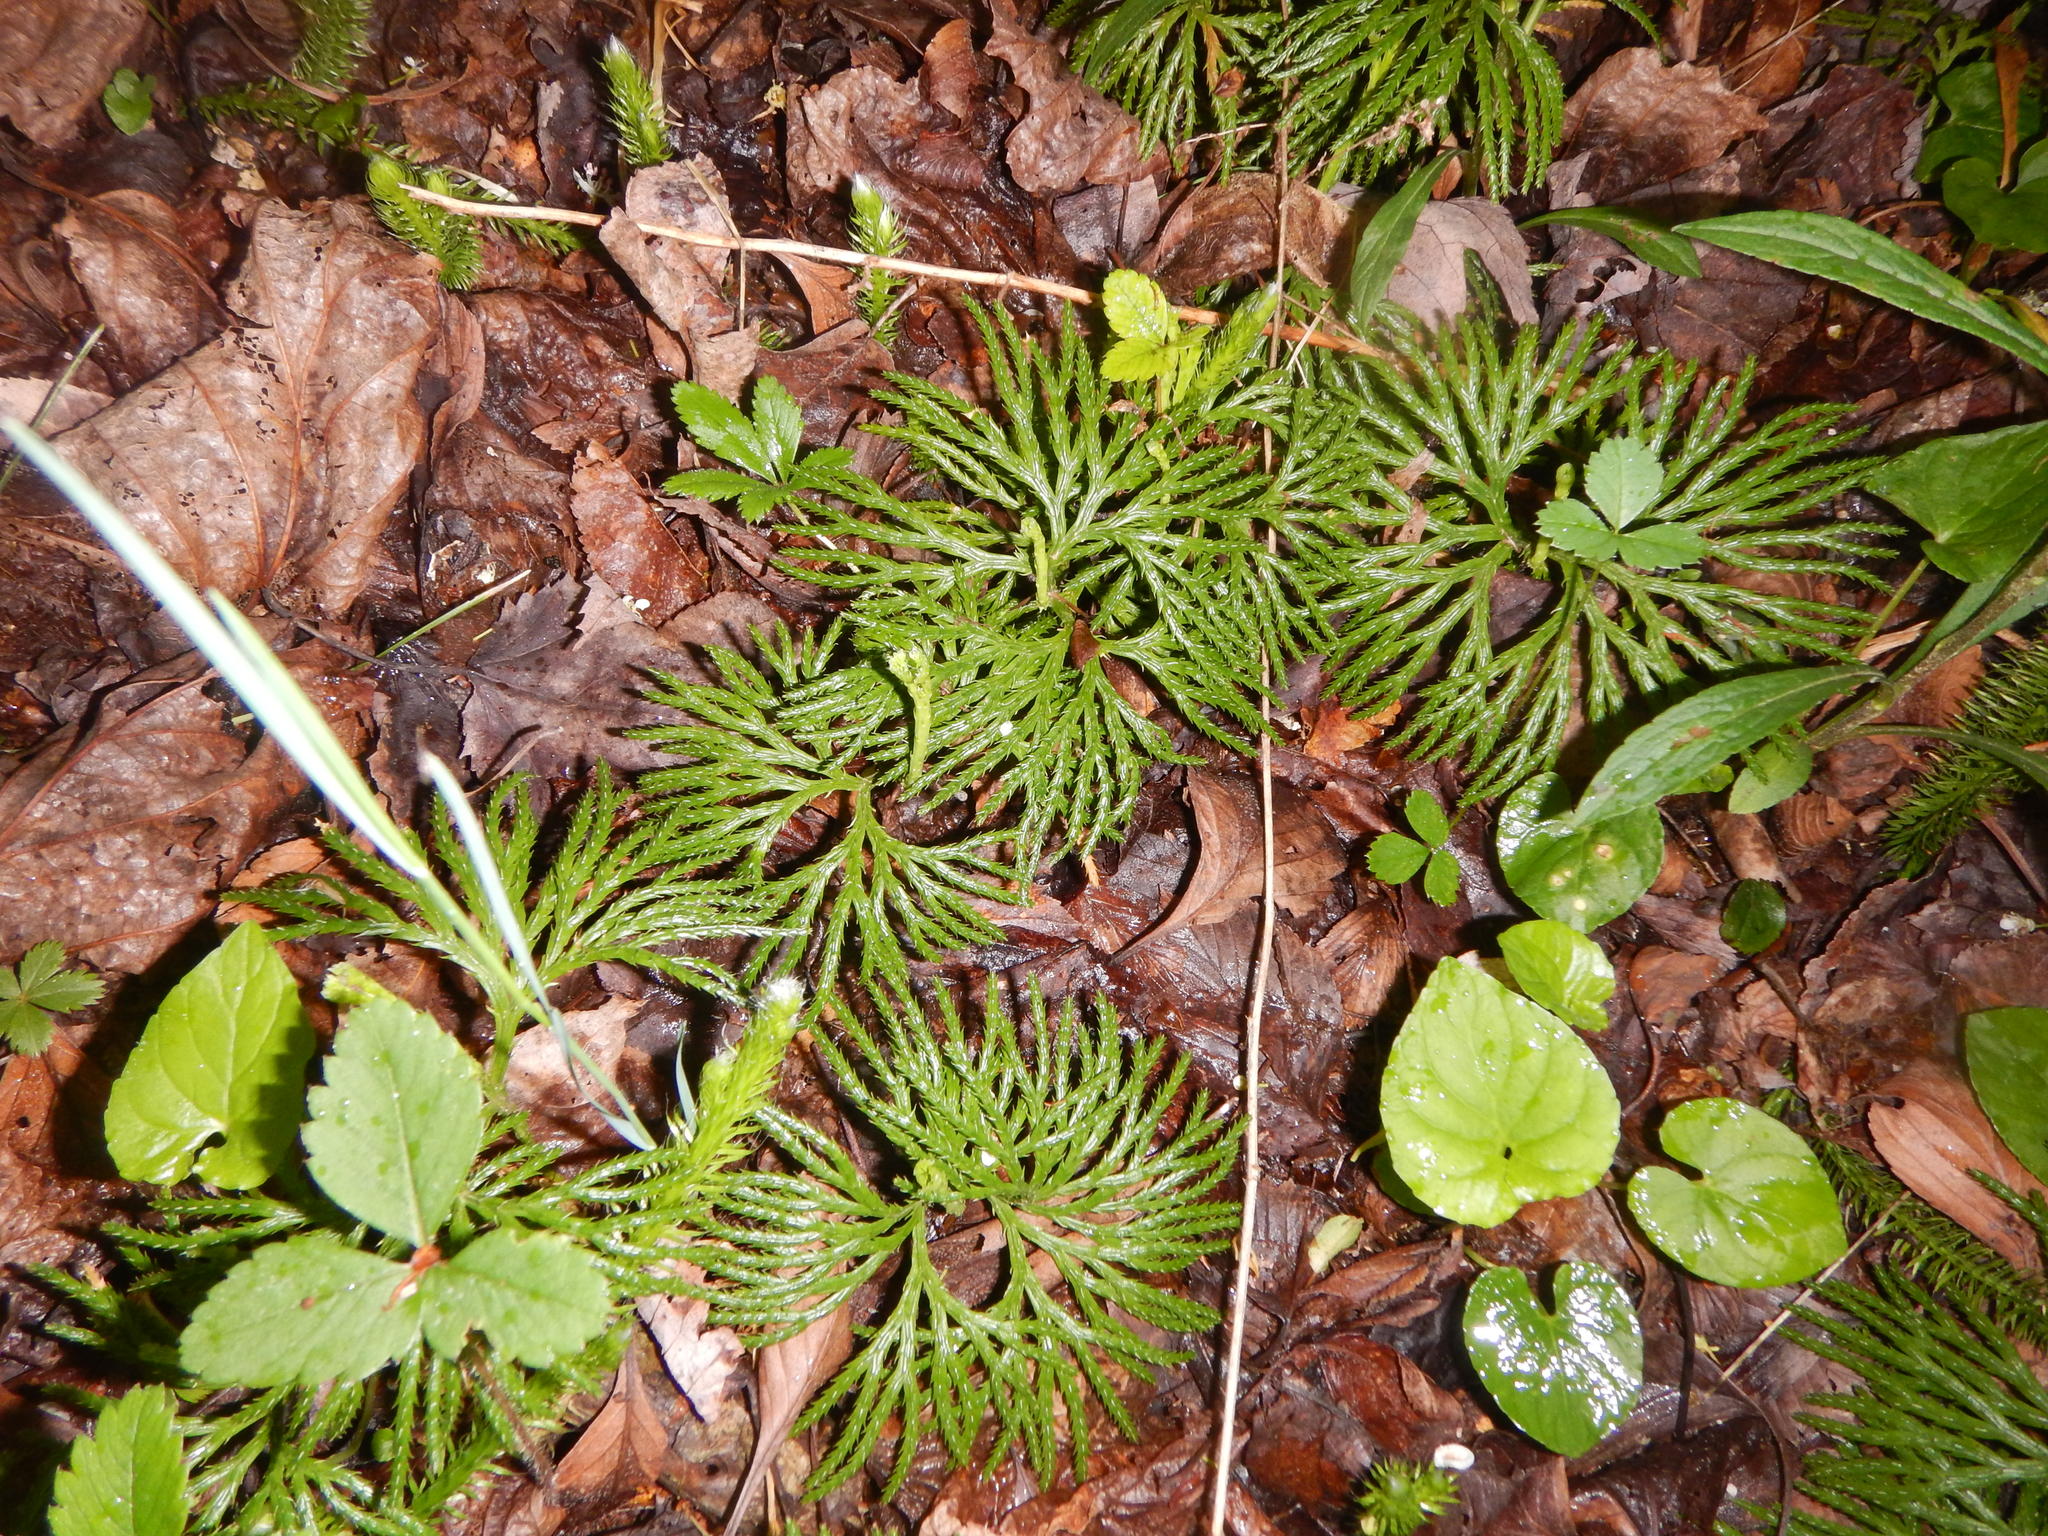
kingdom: Plantae
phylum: Tracheophyta
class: Lycopodiopsida
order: Lycopodiales
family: Lycopodiaceae
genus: Diphasiastrum
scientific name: Diphasiastrum digitatum
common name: Southern running-pine
